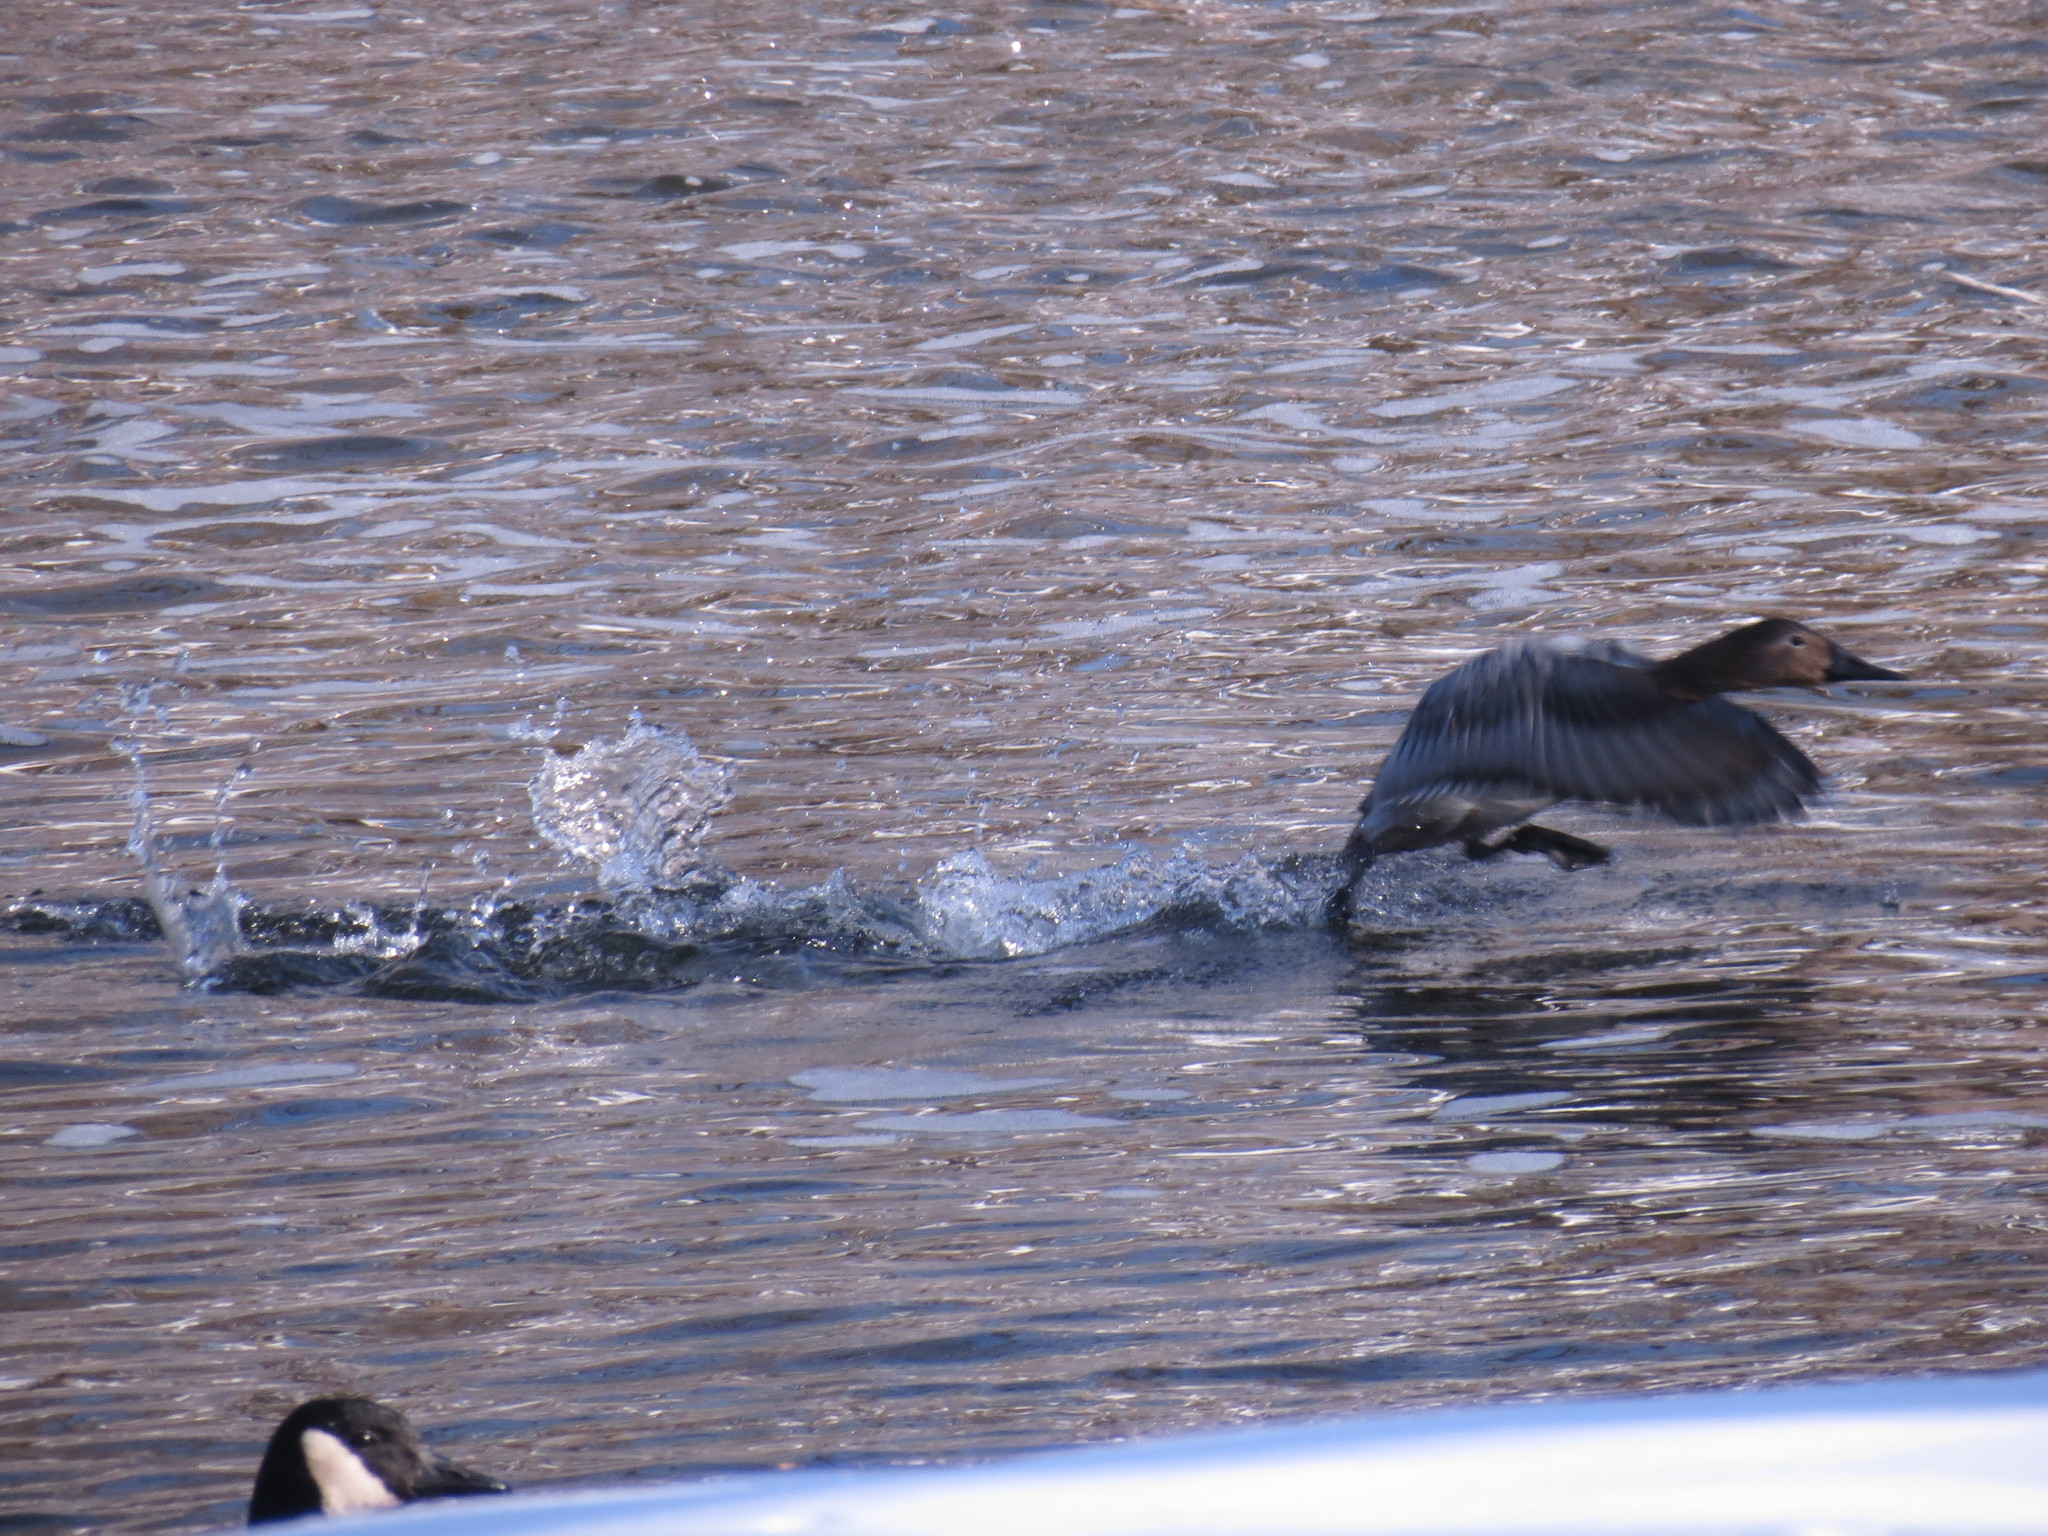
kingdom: Animalia
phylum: Chordata
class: Aves
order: Anseriformes
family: Anatidae
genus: Aythya
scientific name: Aythya valisineria
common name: Canvasback
